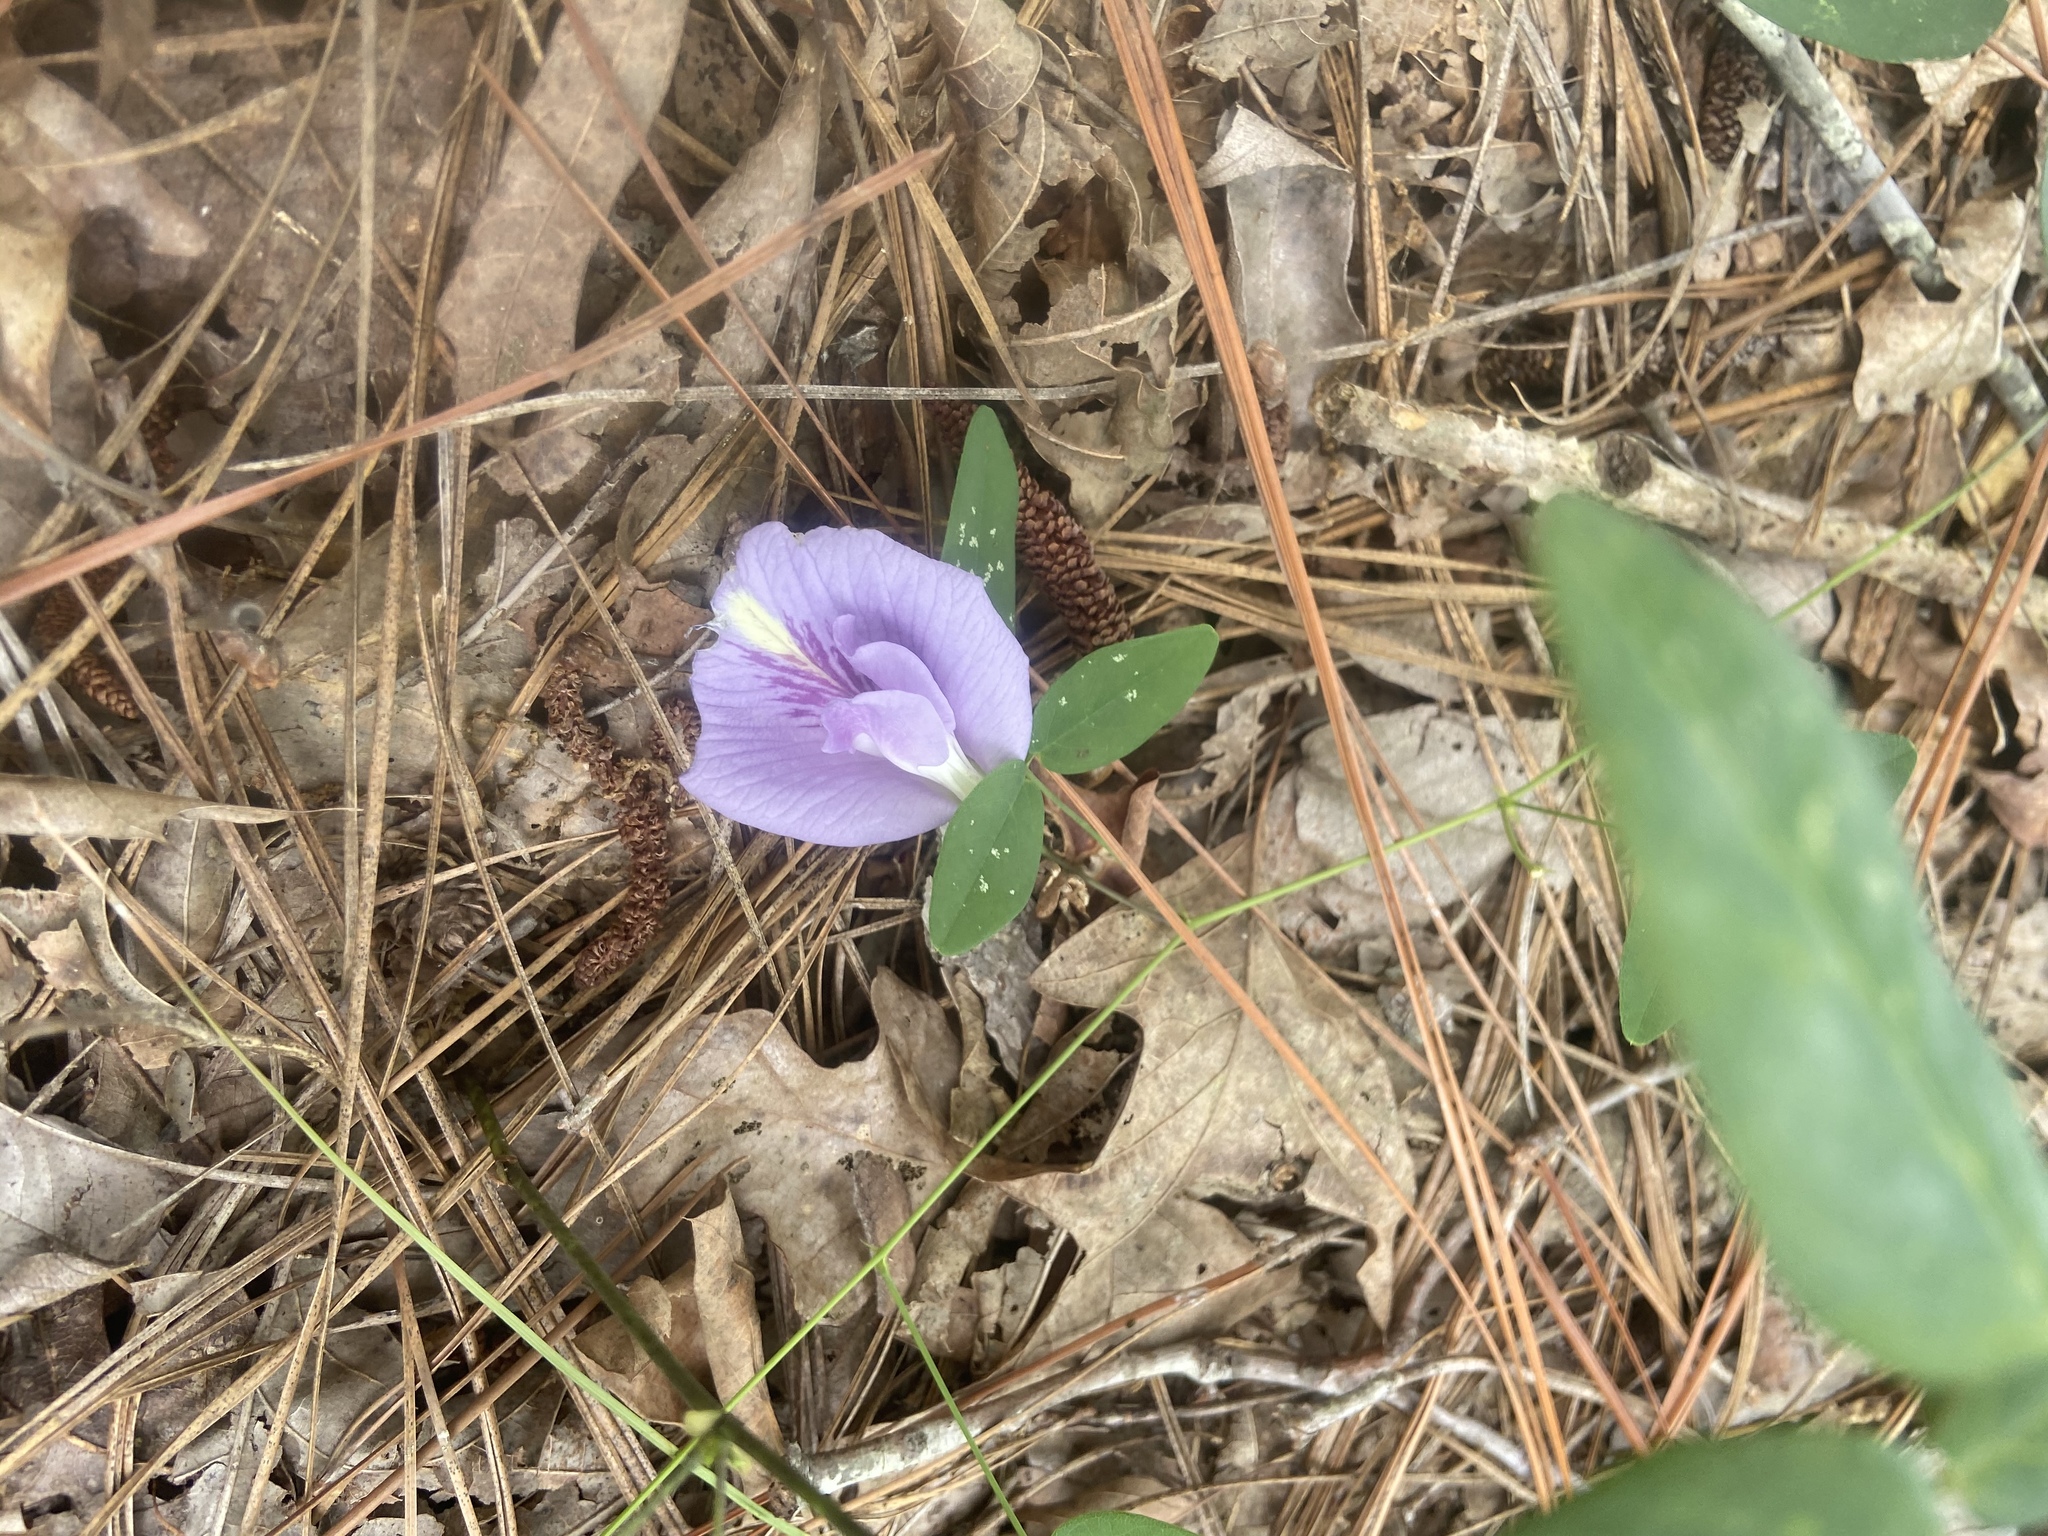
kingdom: Plantae
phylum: Tracheophyta
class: Magnoliopsida
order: Fabales
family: Fabaceae
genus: Clitoria
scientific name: Clitoria mariana
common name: Butterfly-pea
